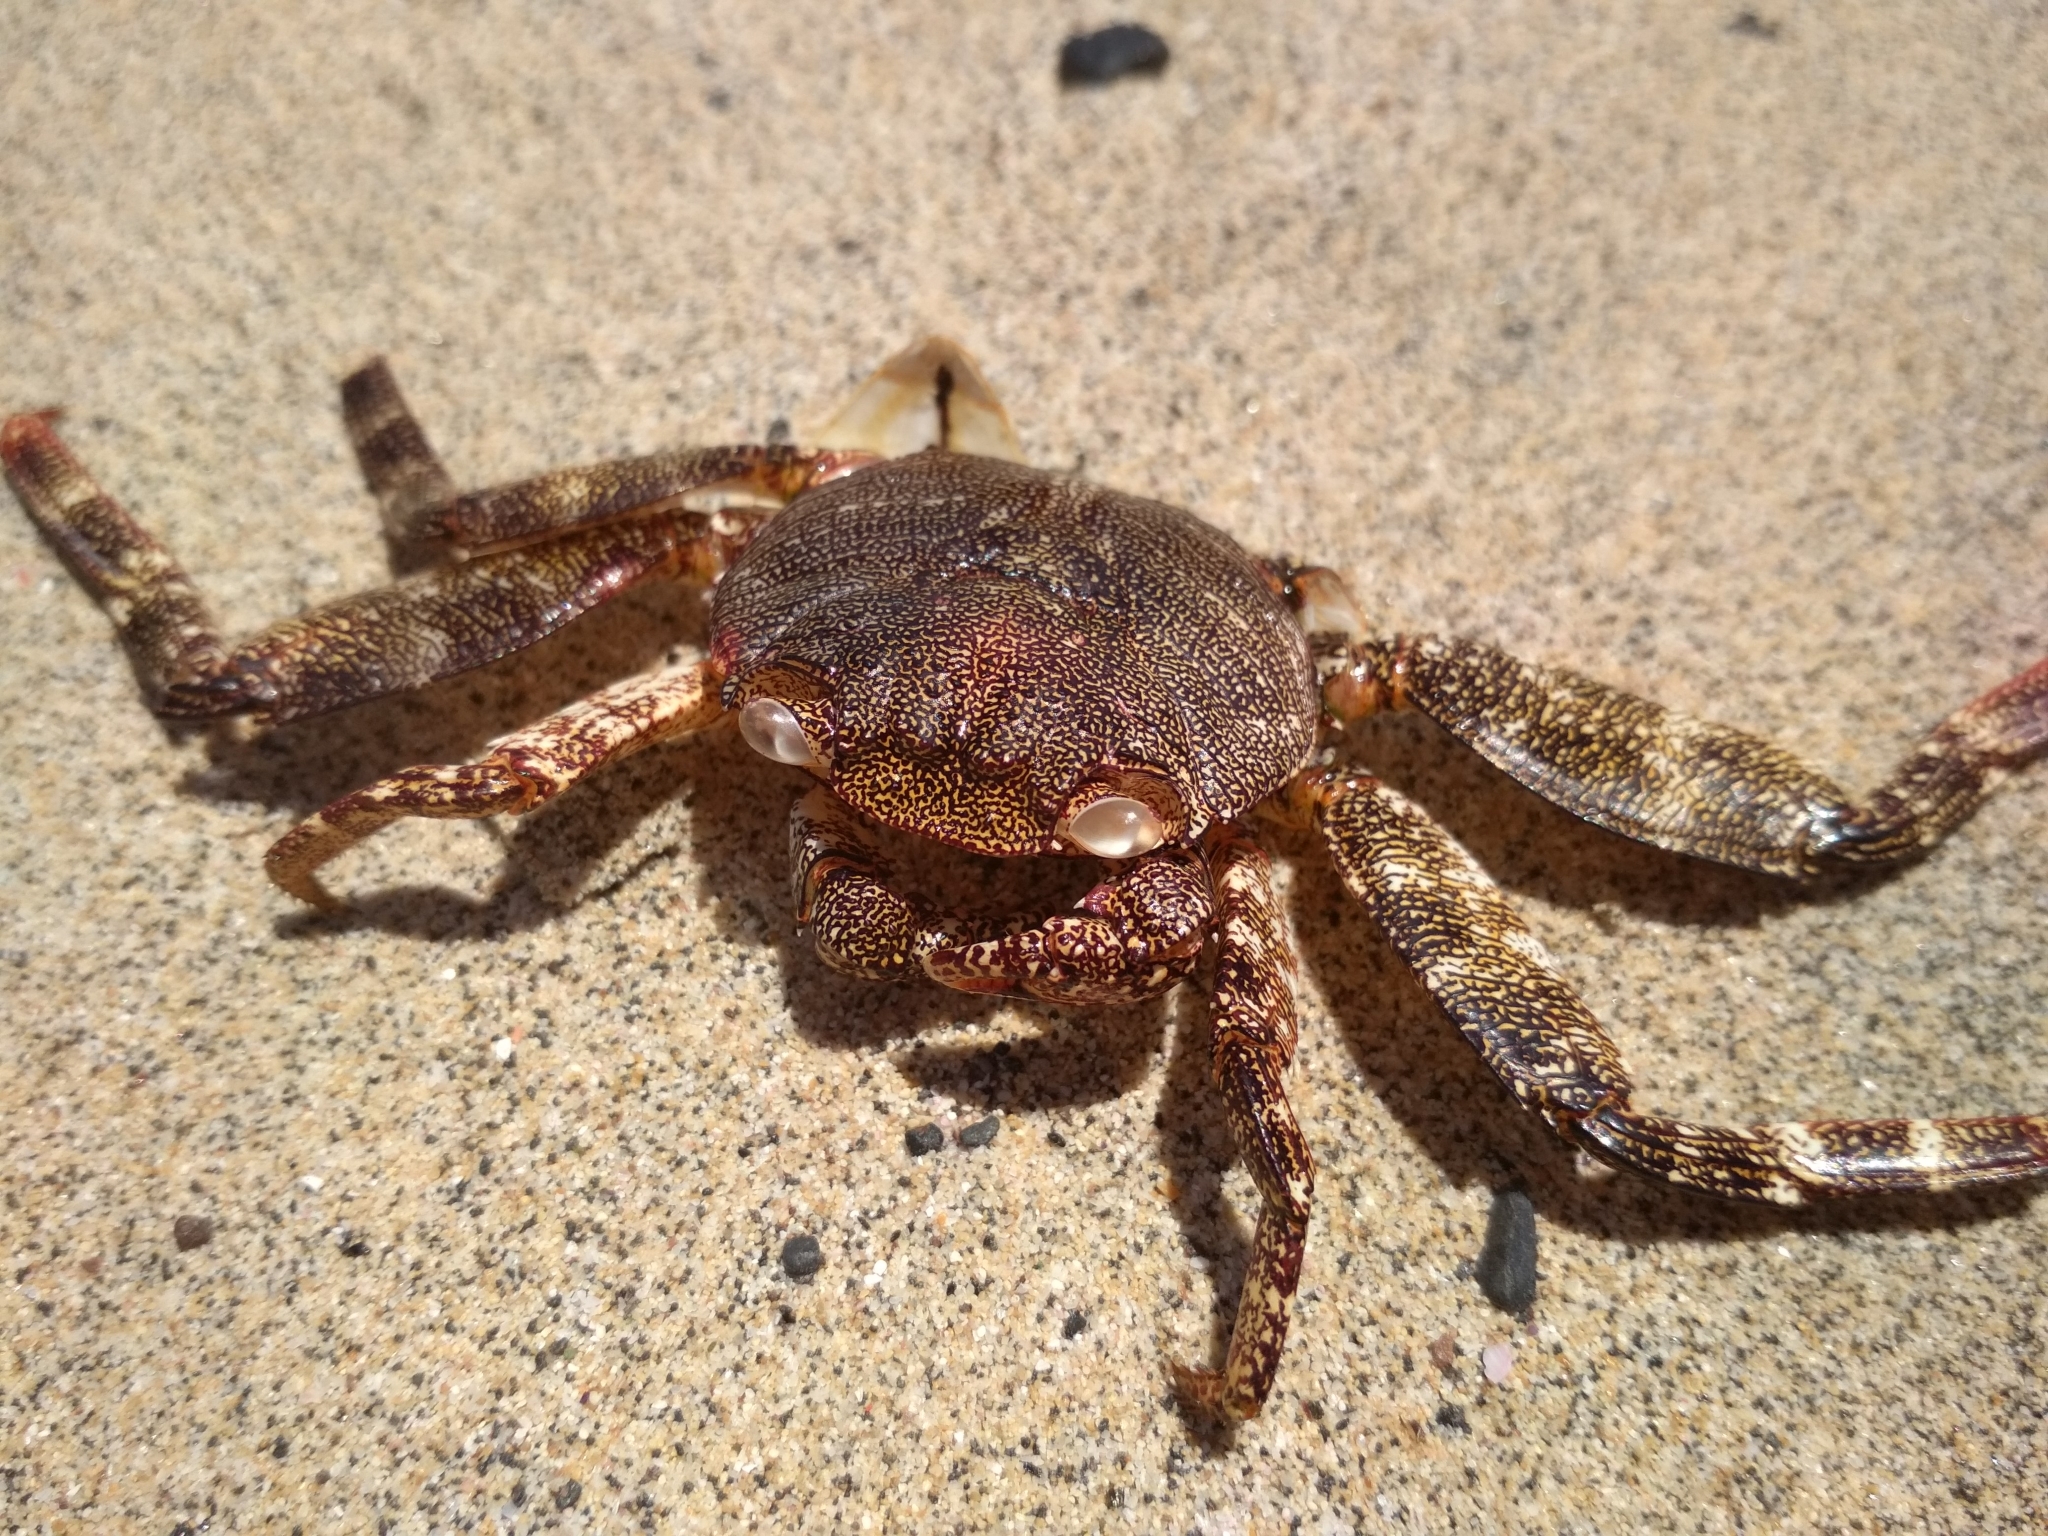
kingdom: Animalia
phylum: Arthropoda
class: Malacostraca
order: Decapoda
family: Grapsidae
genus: Grapsus
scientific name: Grapsus adscensionis
